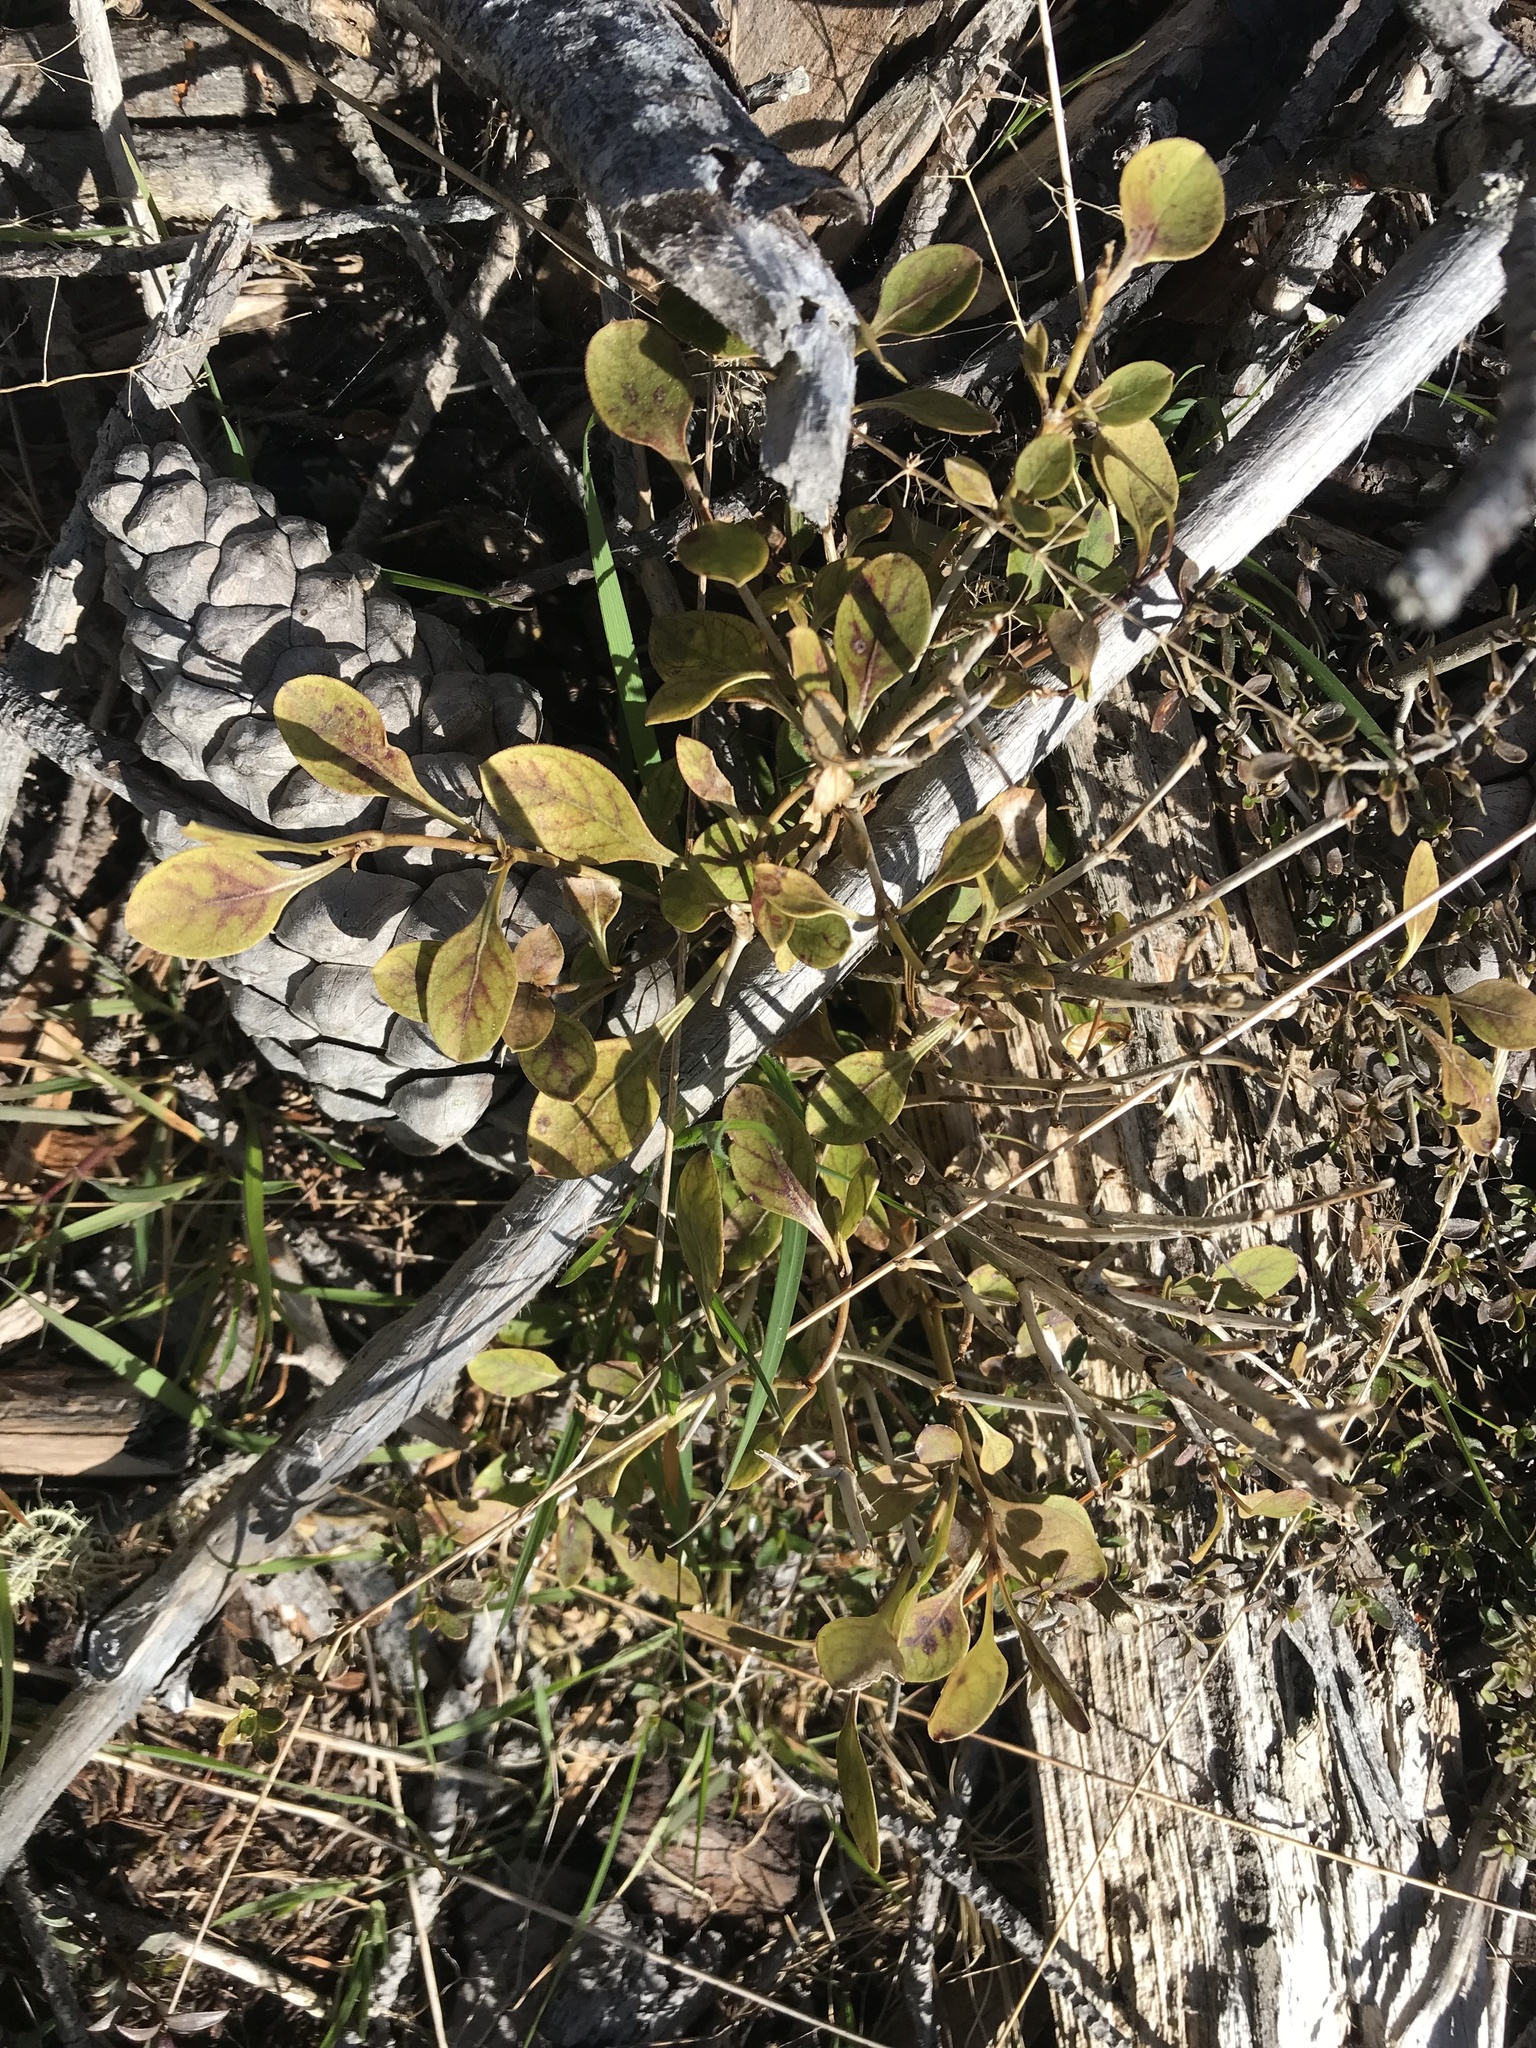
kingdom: Plantae
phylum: Tracheophyta
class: Magnoliopsida
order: Gentianales
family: Rubiaceae
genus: Coprosma
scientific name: Coprosma foetidissima
